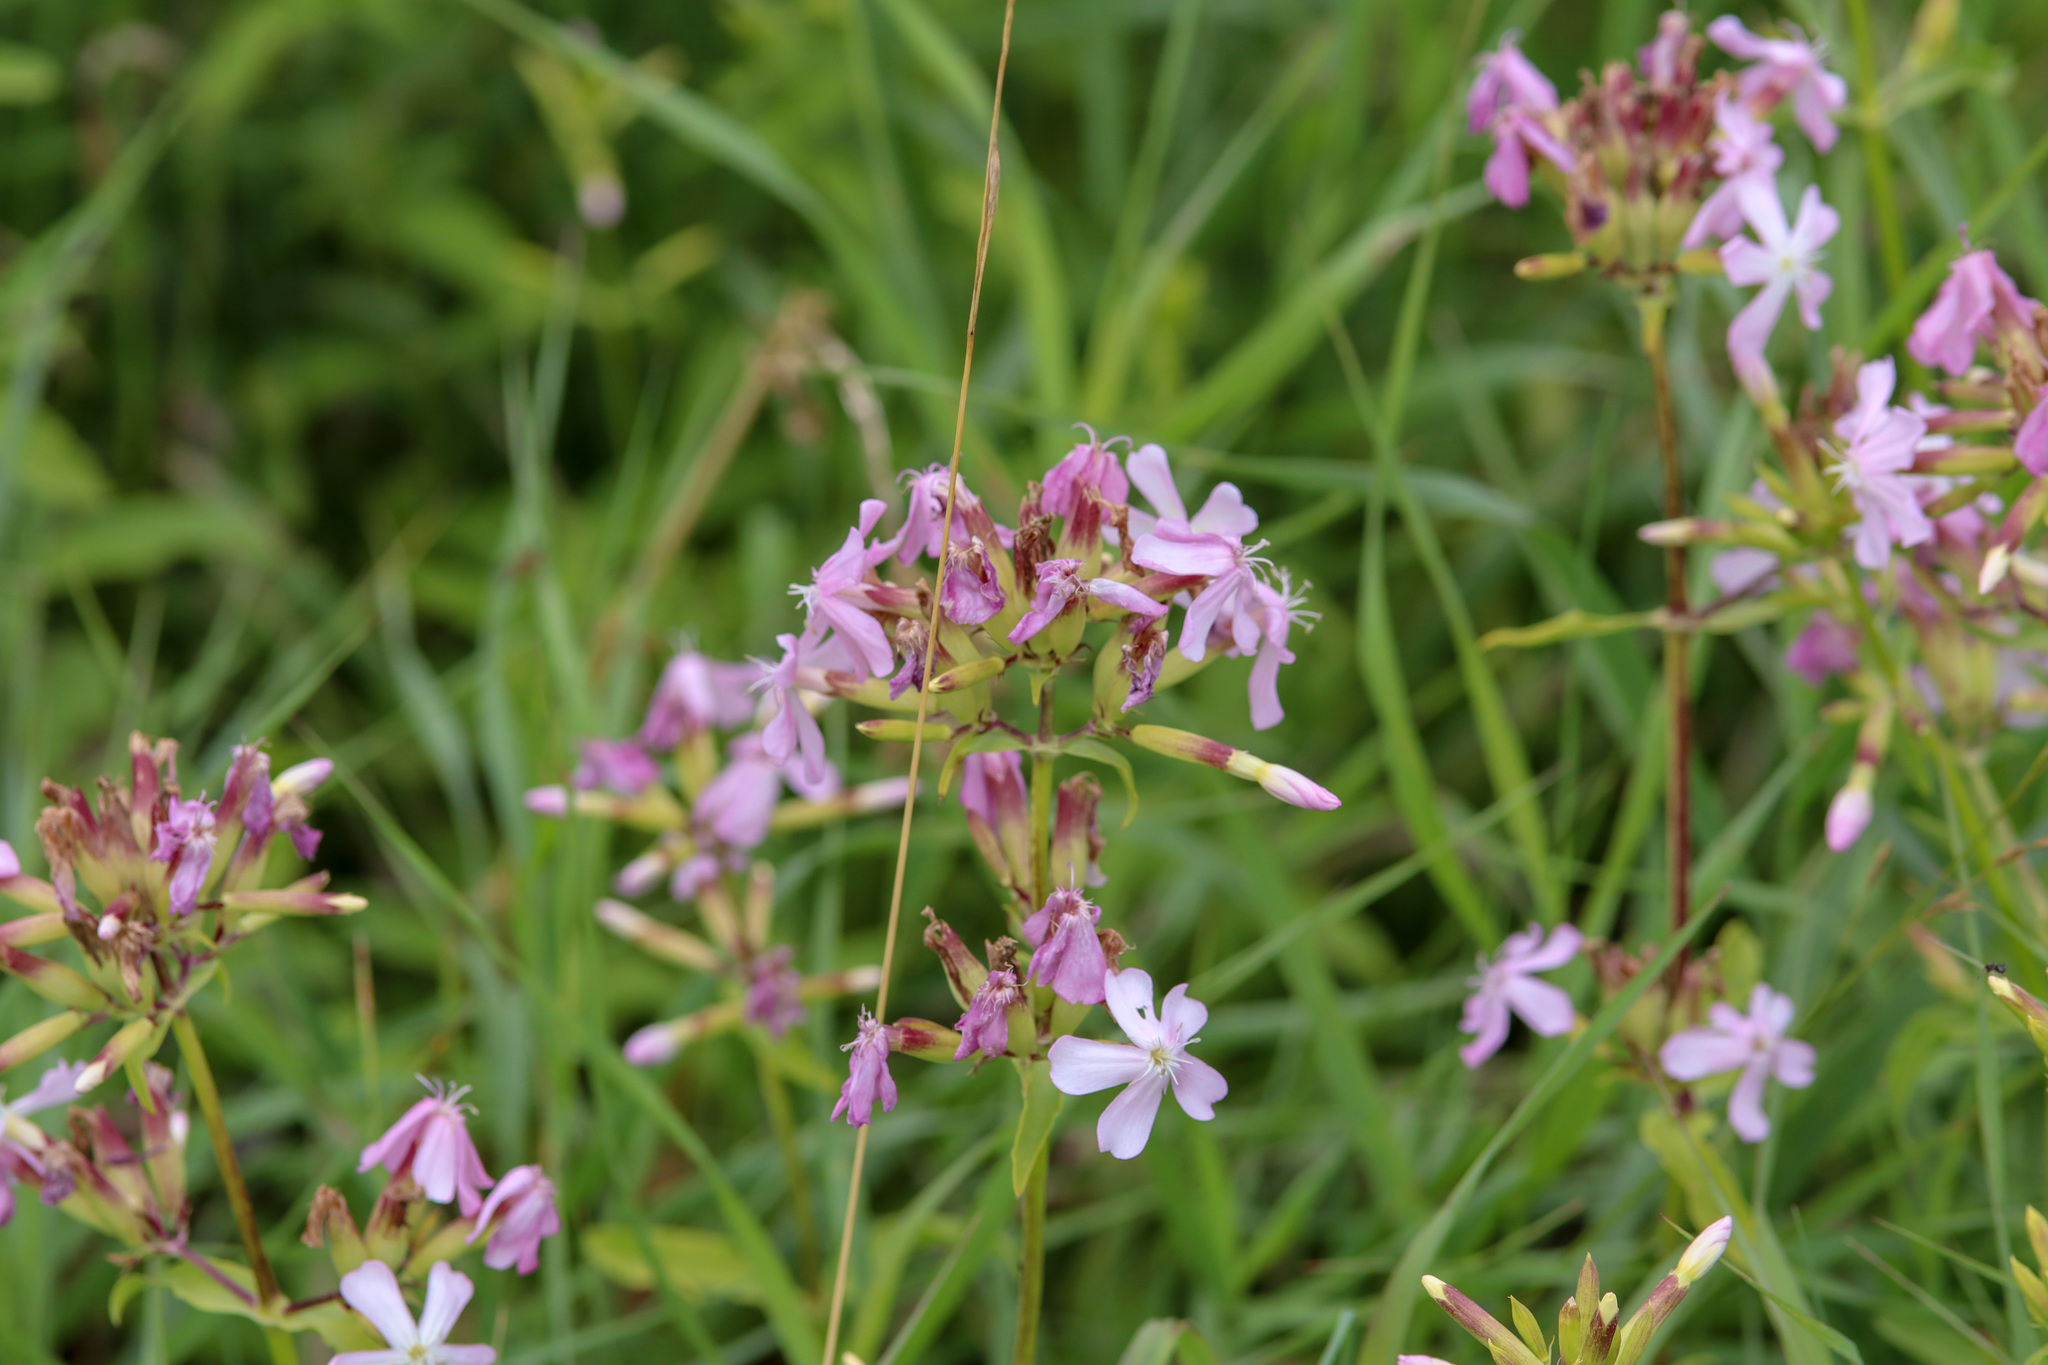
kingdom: Plantae
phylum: Tracheophyta
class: Magnoliopsida
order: Caryophyllales
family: Caryophyllaceae
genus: Saponaria
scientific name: Saponaria officinalis
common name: Soapwort
